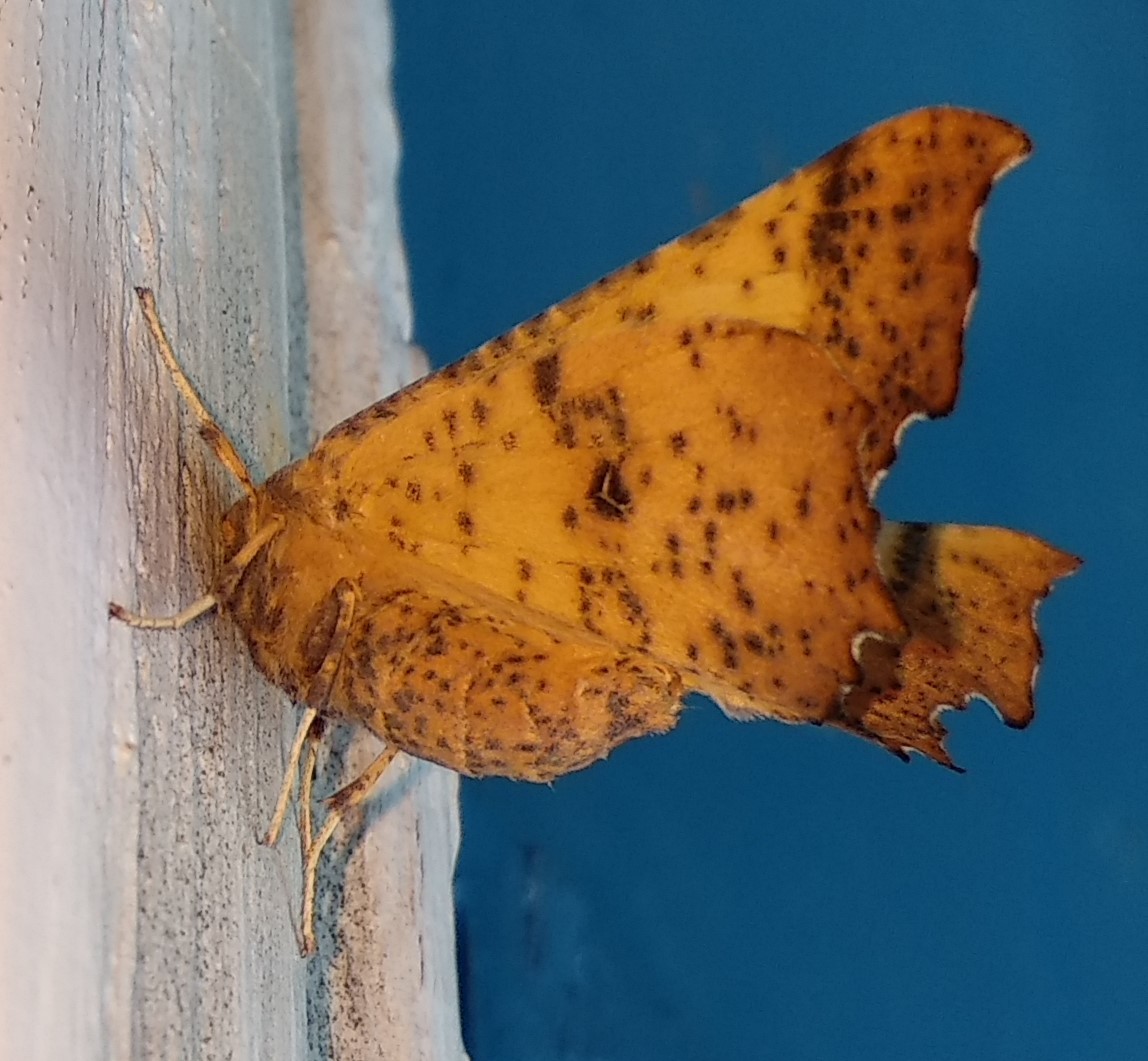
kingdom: Animalia
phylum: Arthropoda
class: Insecta
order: Lepidoptera
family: Geometridae
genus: Ennomos
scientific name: Ennomos magnaria
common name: Maple spanworm
